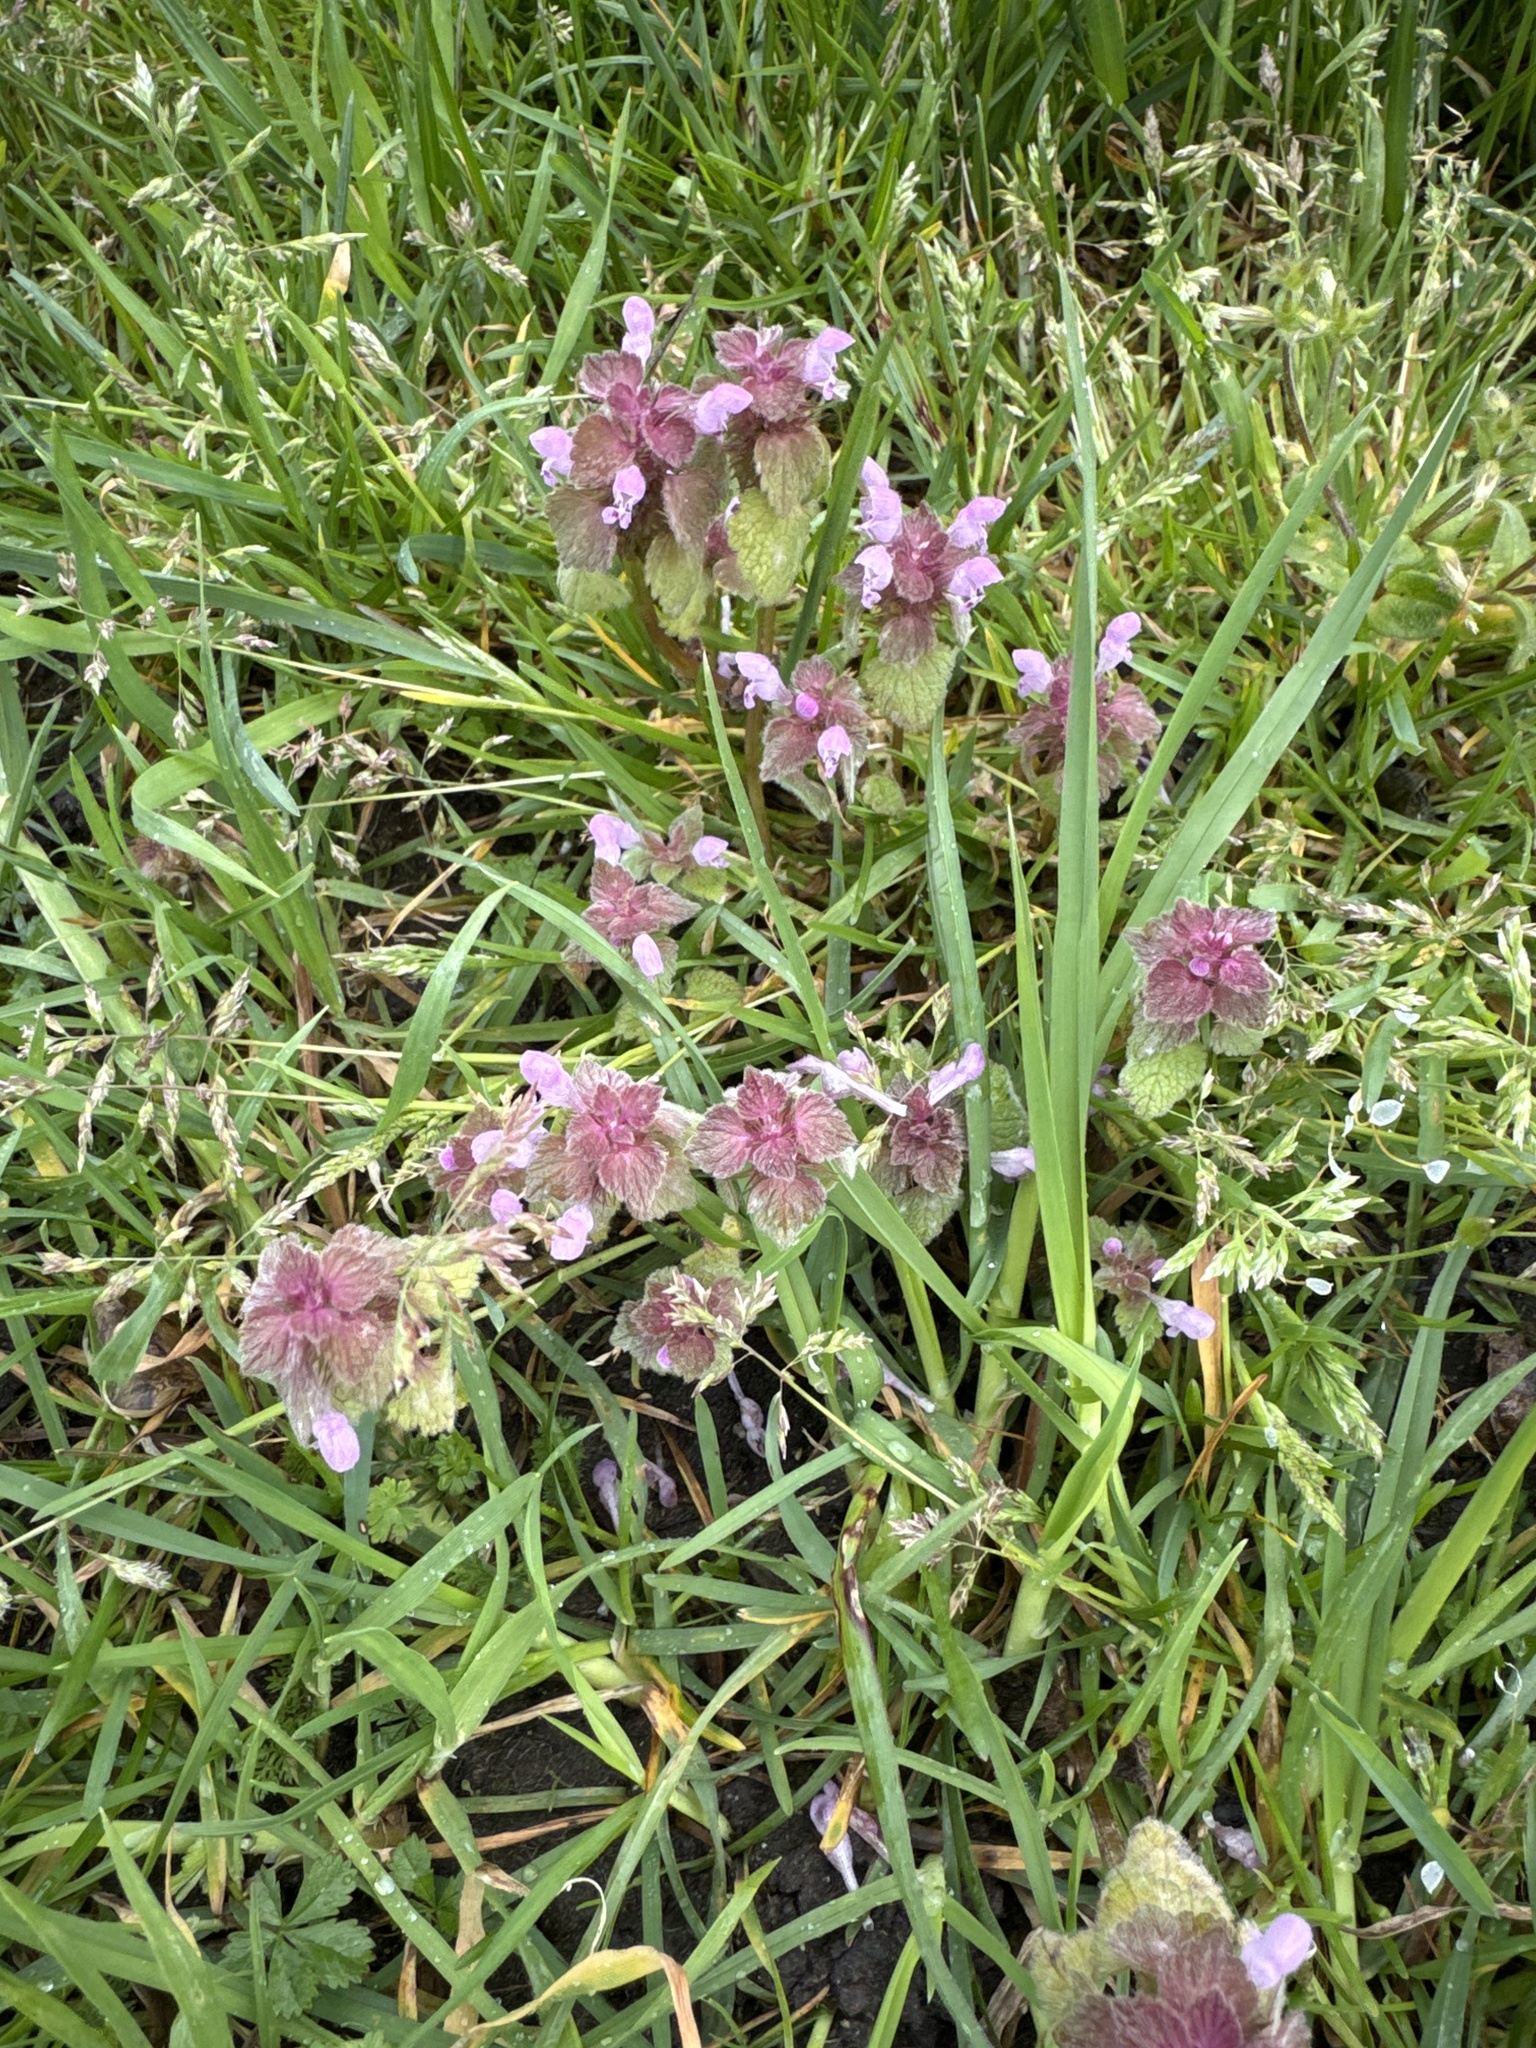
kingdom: Plantae
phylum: Tracheophyta
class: Magnoliopsida
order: Lamiales
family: Lamiaceae
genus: Lamium
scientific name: Lamium purpureum
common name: Red dead-nettle
